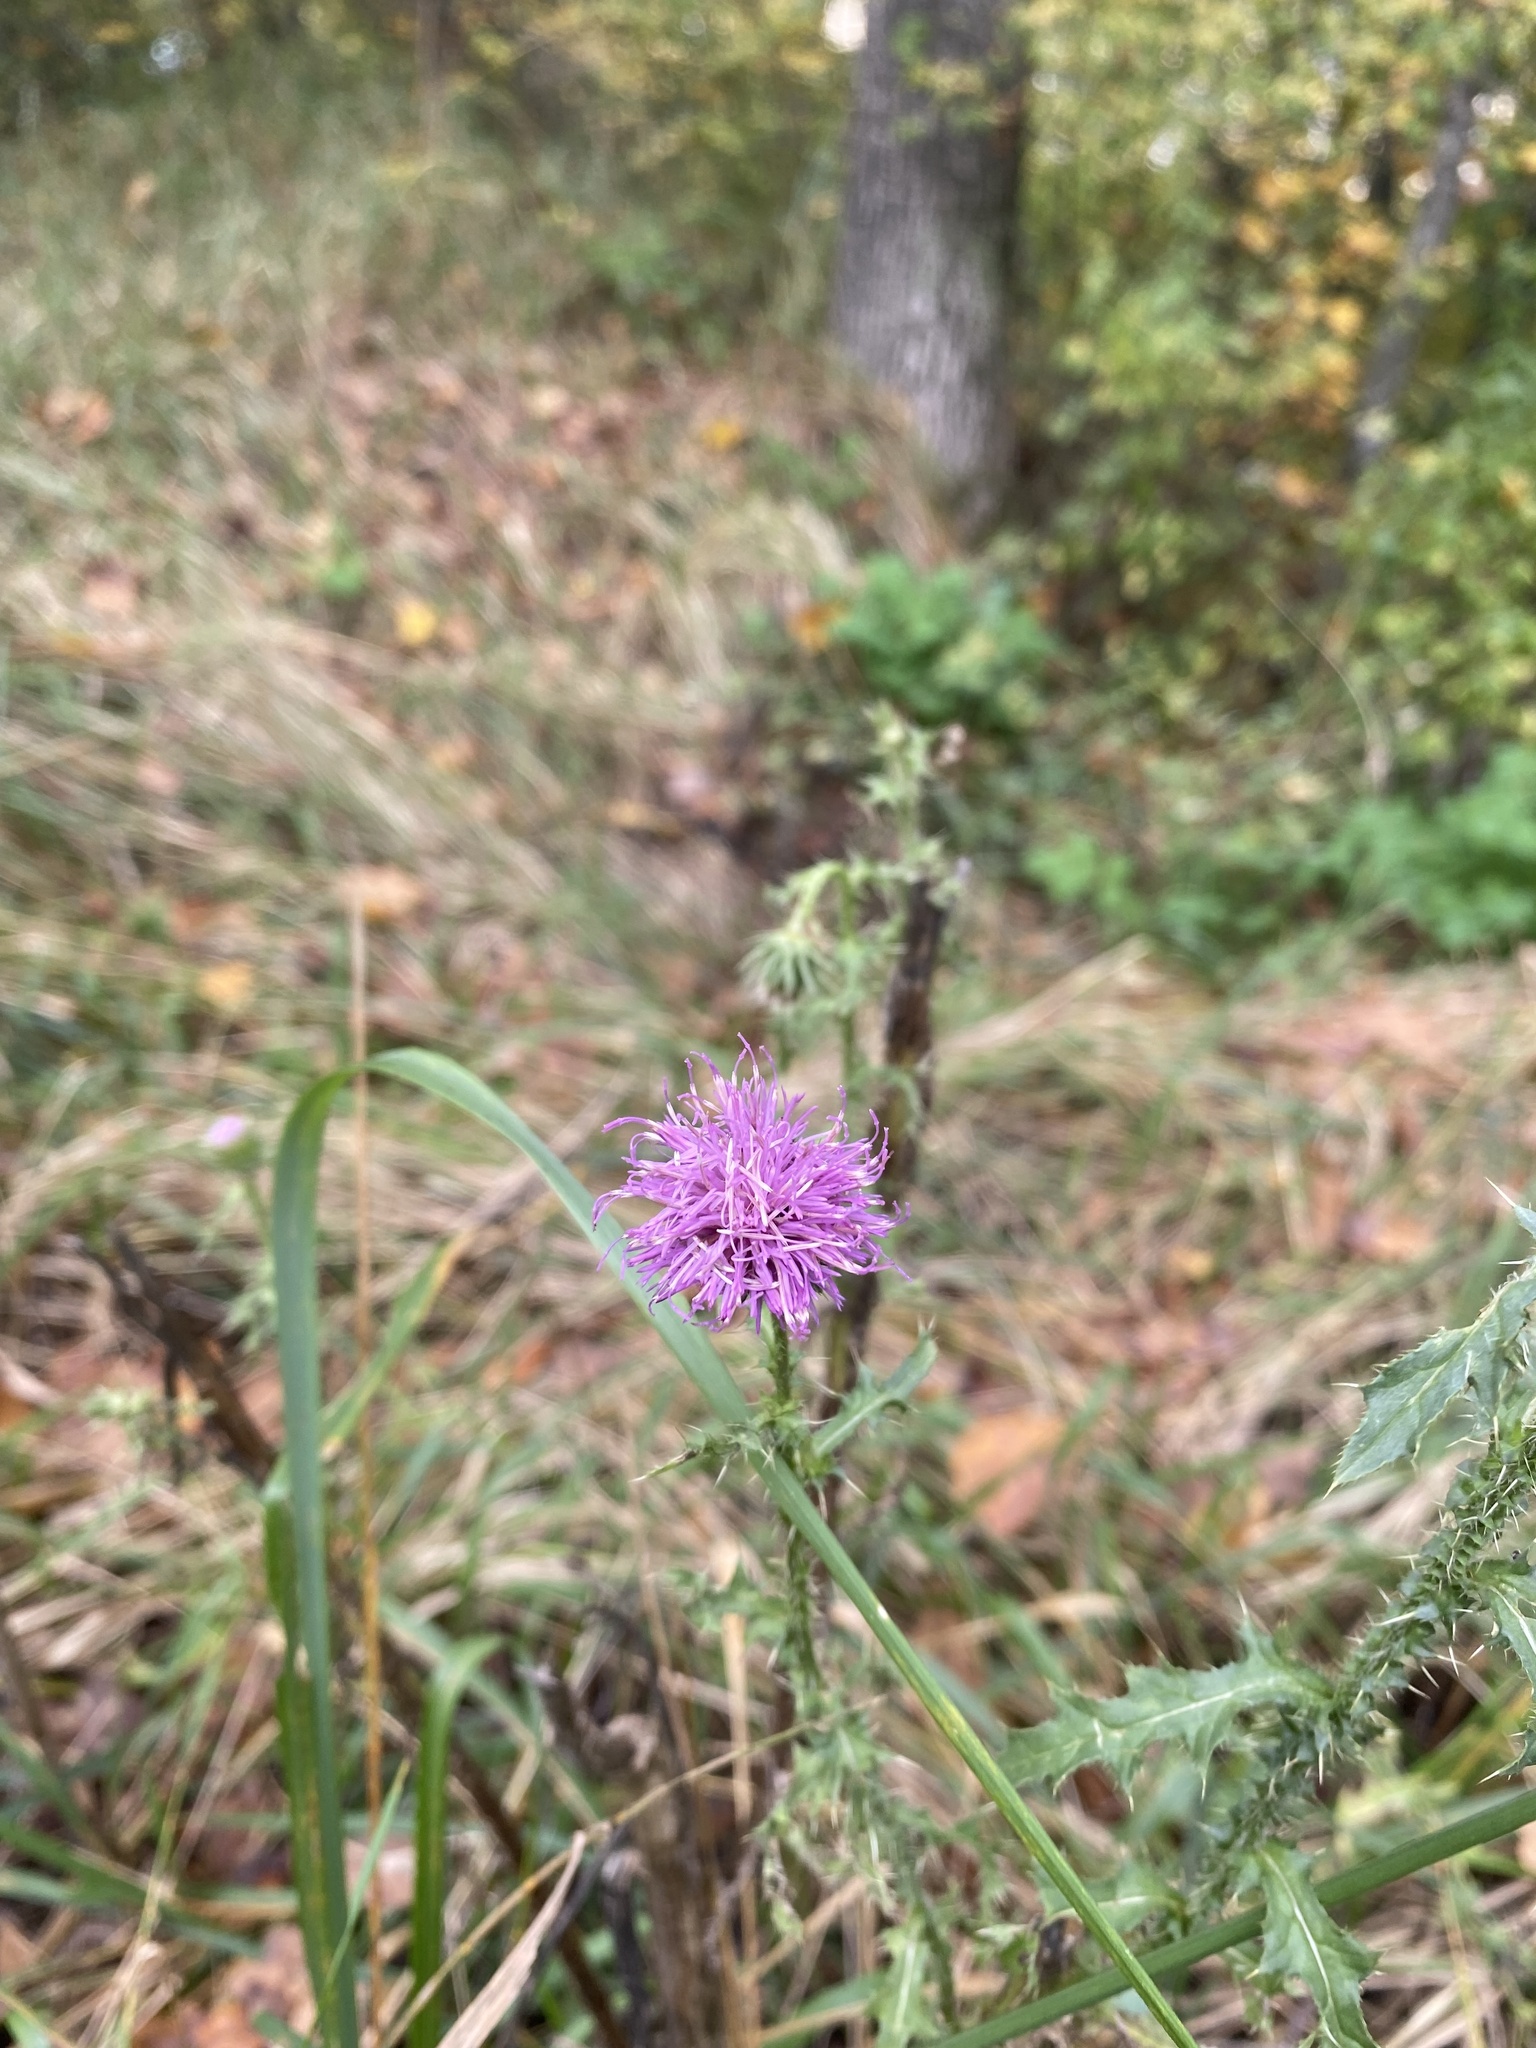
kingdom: Plantae
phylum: Tracheophyta
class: Magnoliopsida
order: Asterales
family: Asteraceae
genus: Carduus
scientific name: Carduus acanthoides
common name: Plumeless thistle
